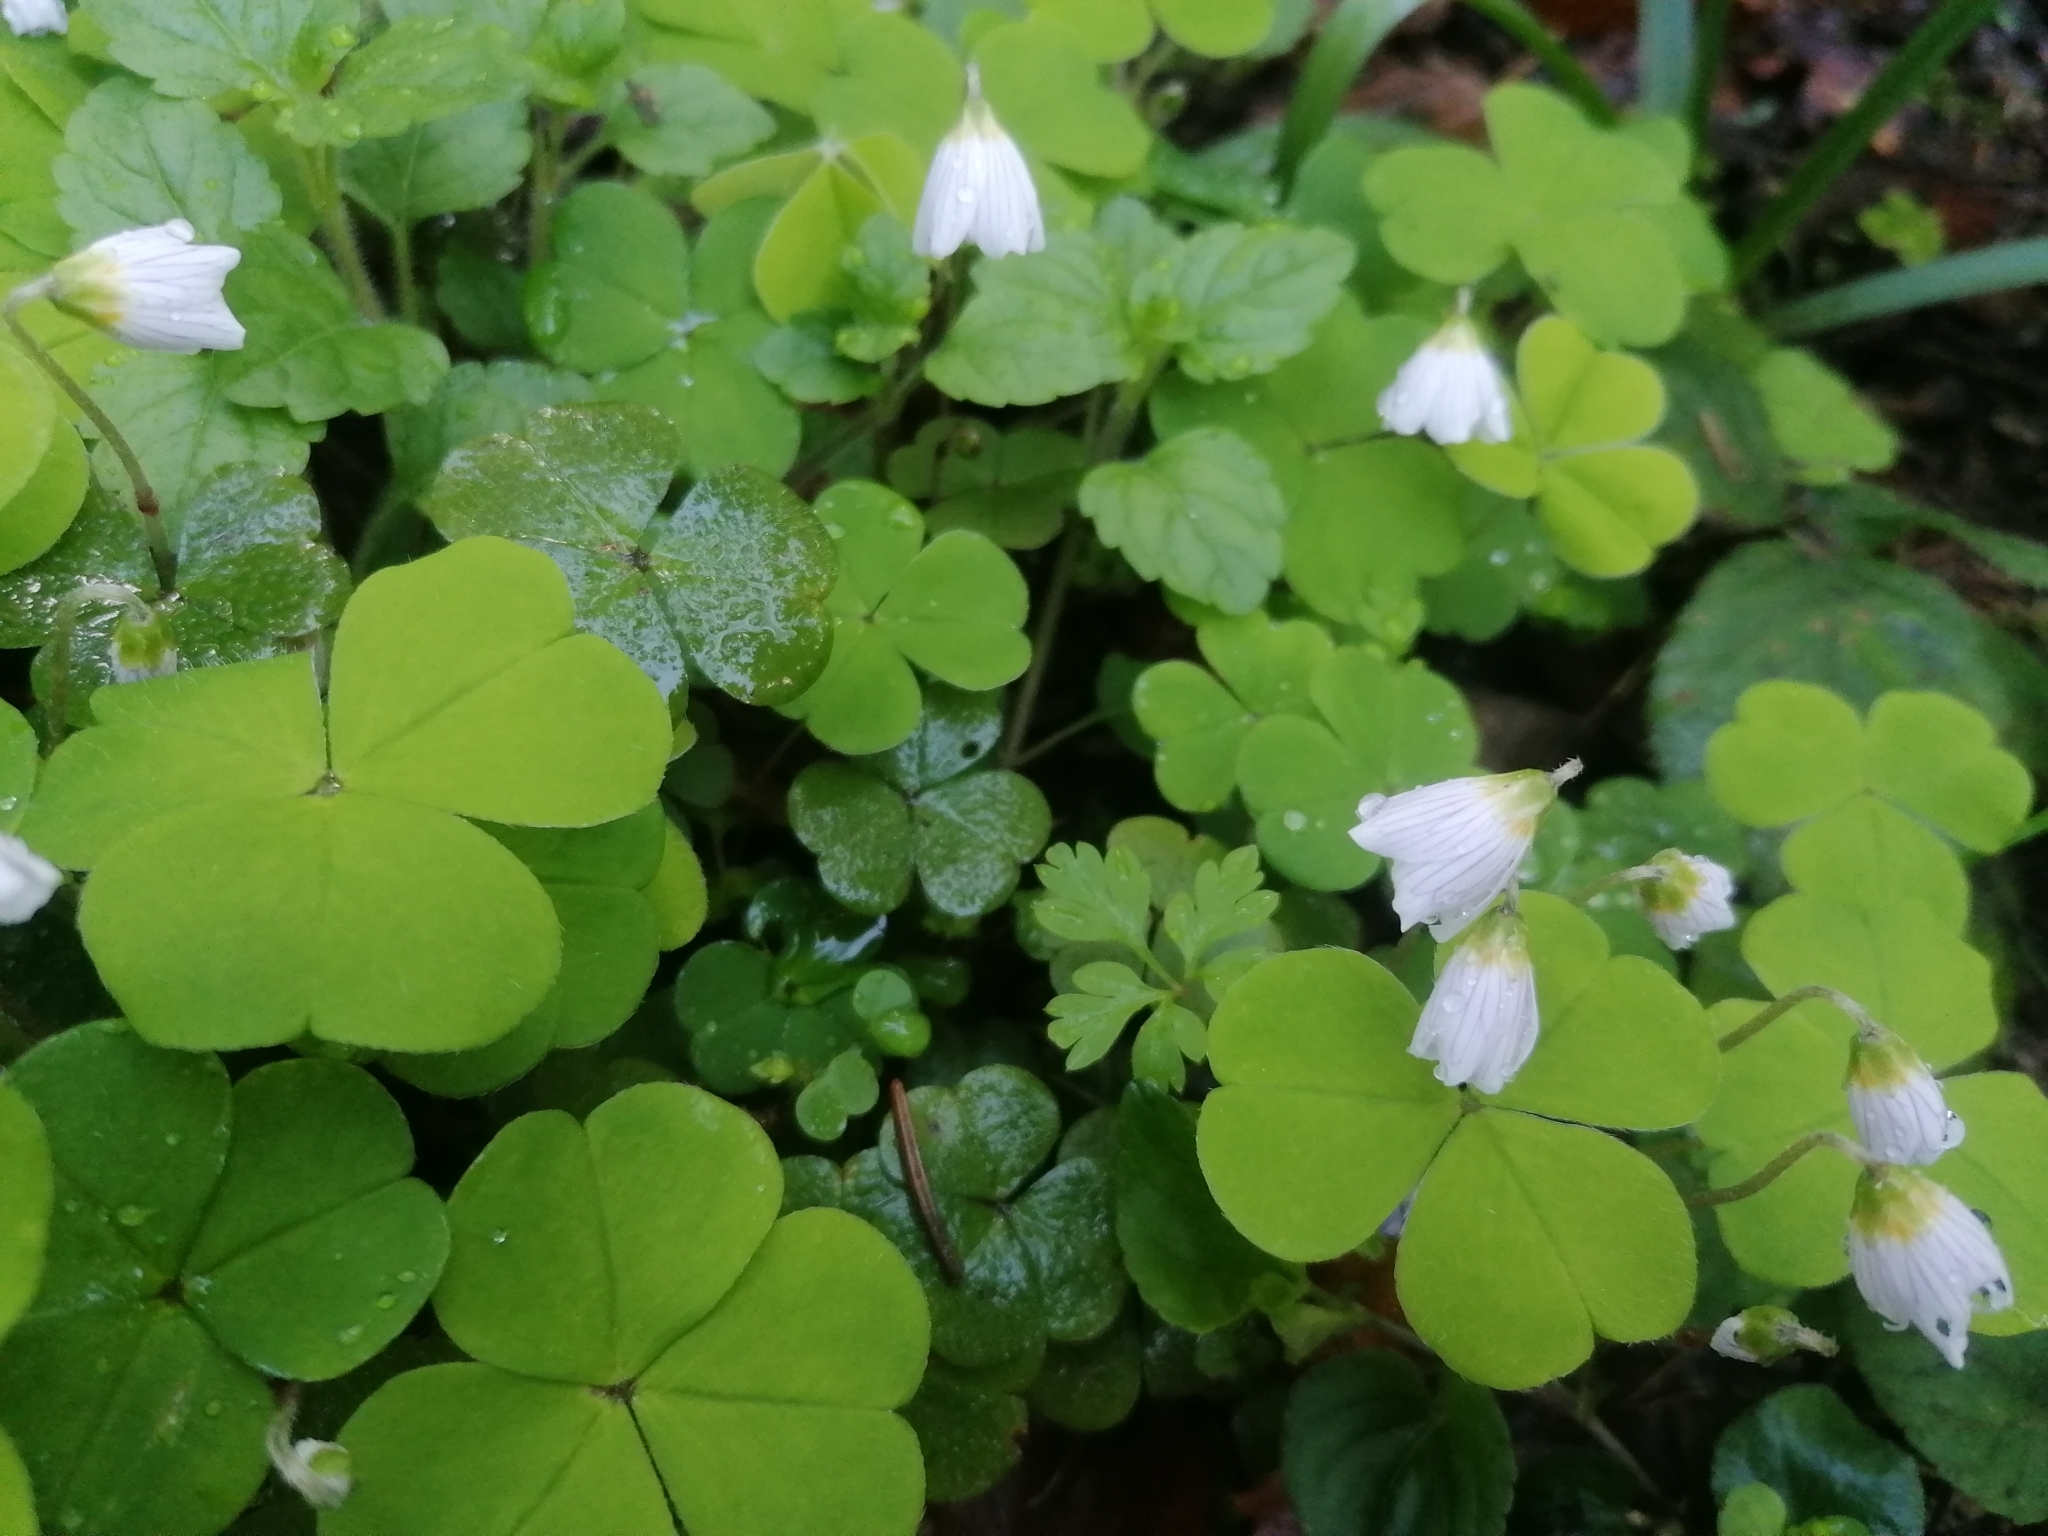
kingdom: Plantae
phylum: Tracheophyta
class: Magnoliopsida
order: Oxalidales
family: Oxalidaceae
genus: Oxalis
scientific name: Oxalis acetosella
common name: Wood-sorrel
